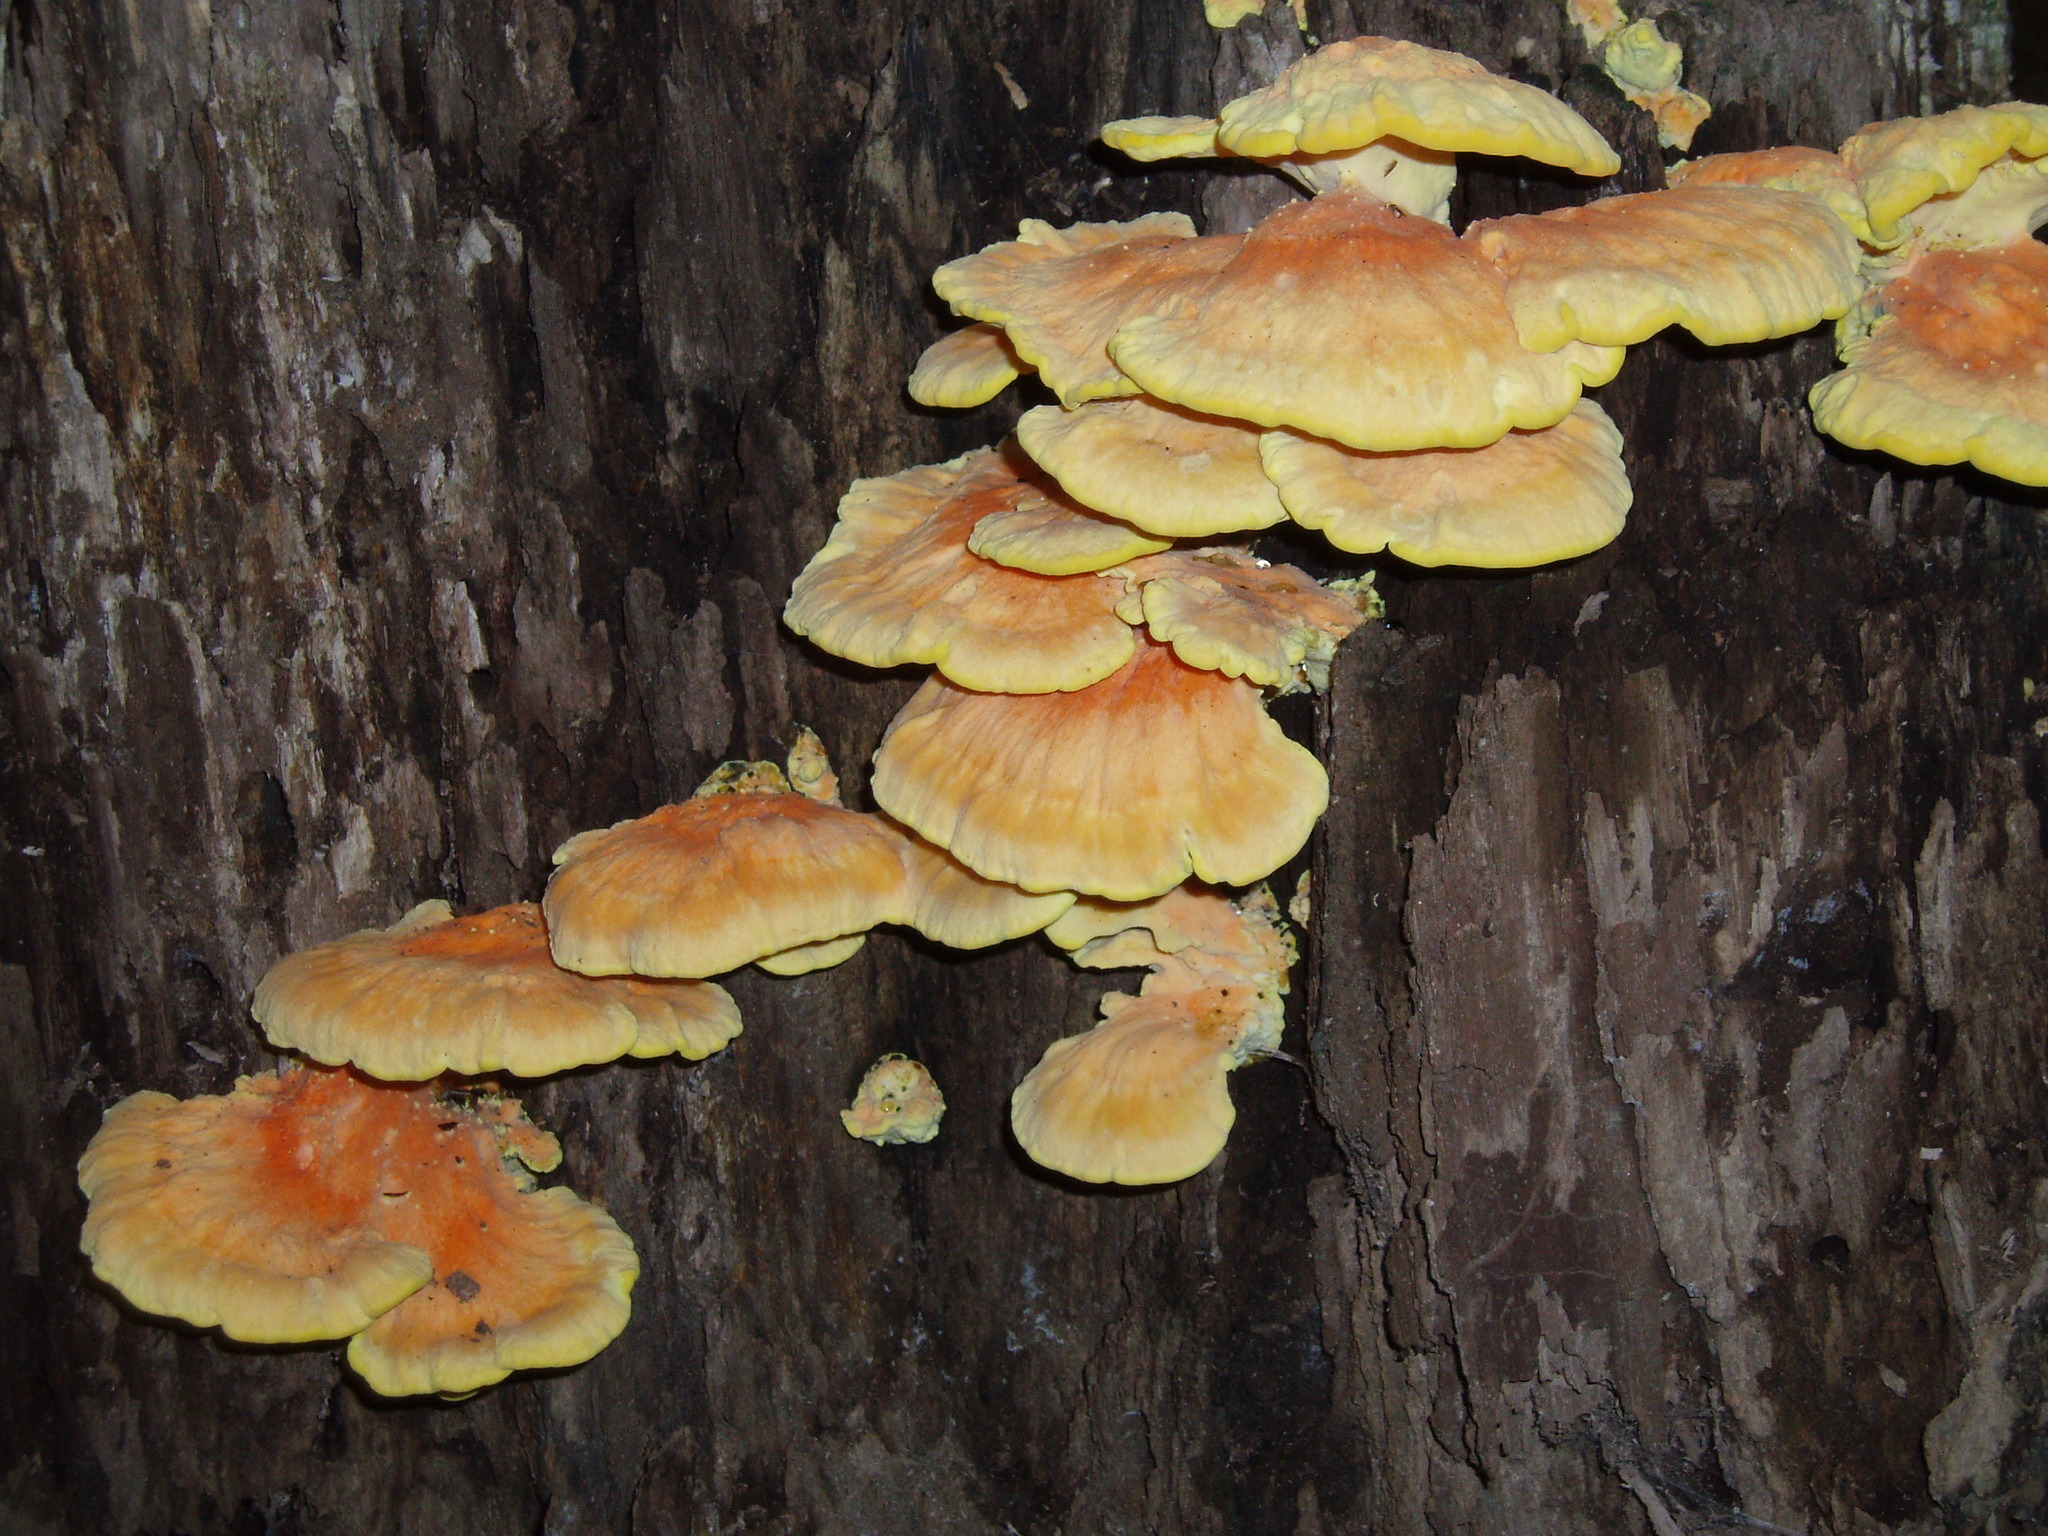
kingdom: Fungi
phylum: Basidiomycota
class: Agaricomycetes
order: Polyporales
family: Laetiporaceae
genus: Laetiporus
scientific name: Laetiporus sulphureus
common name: Chicken of the woods
